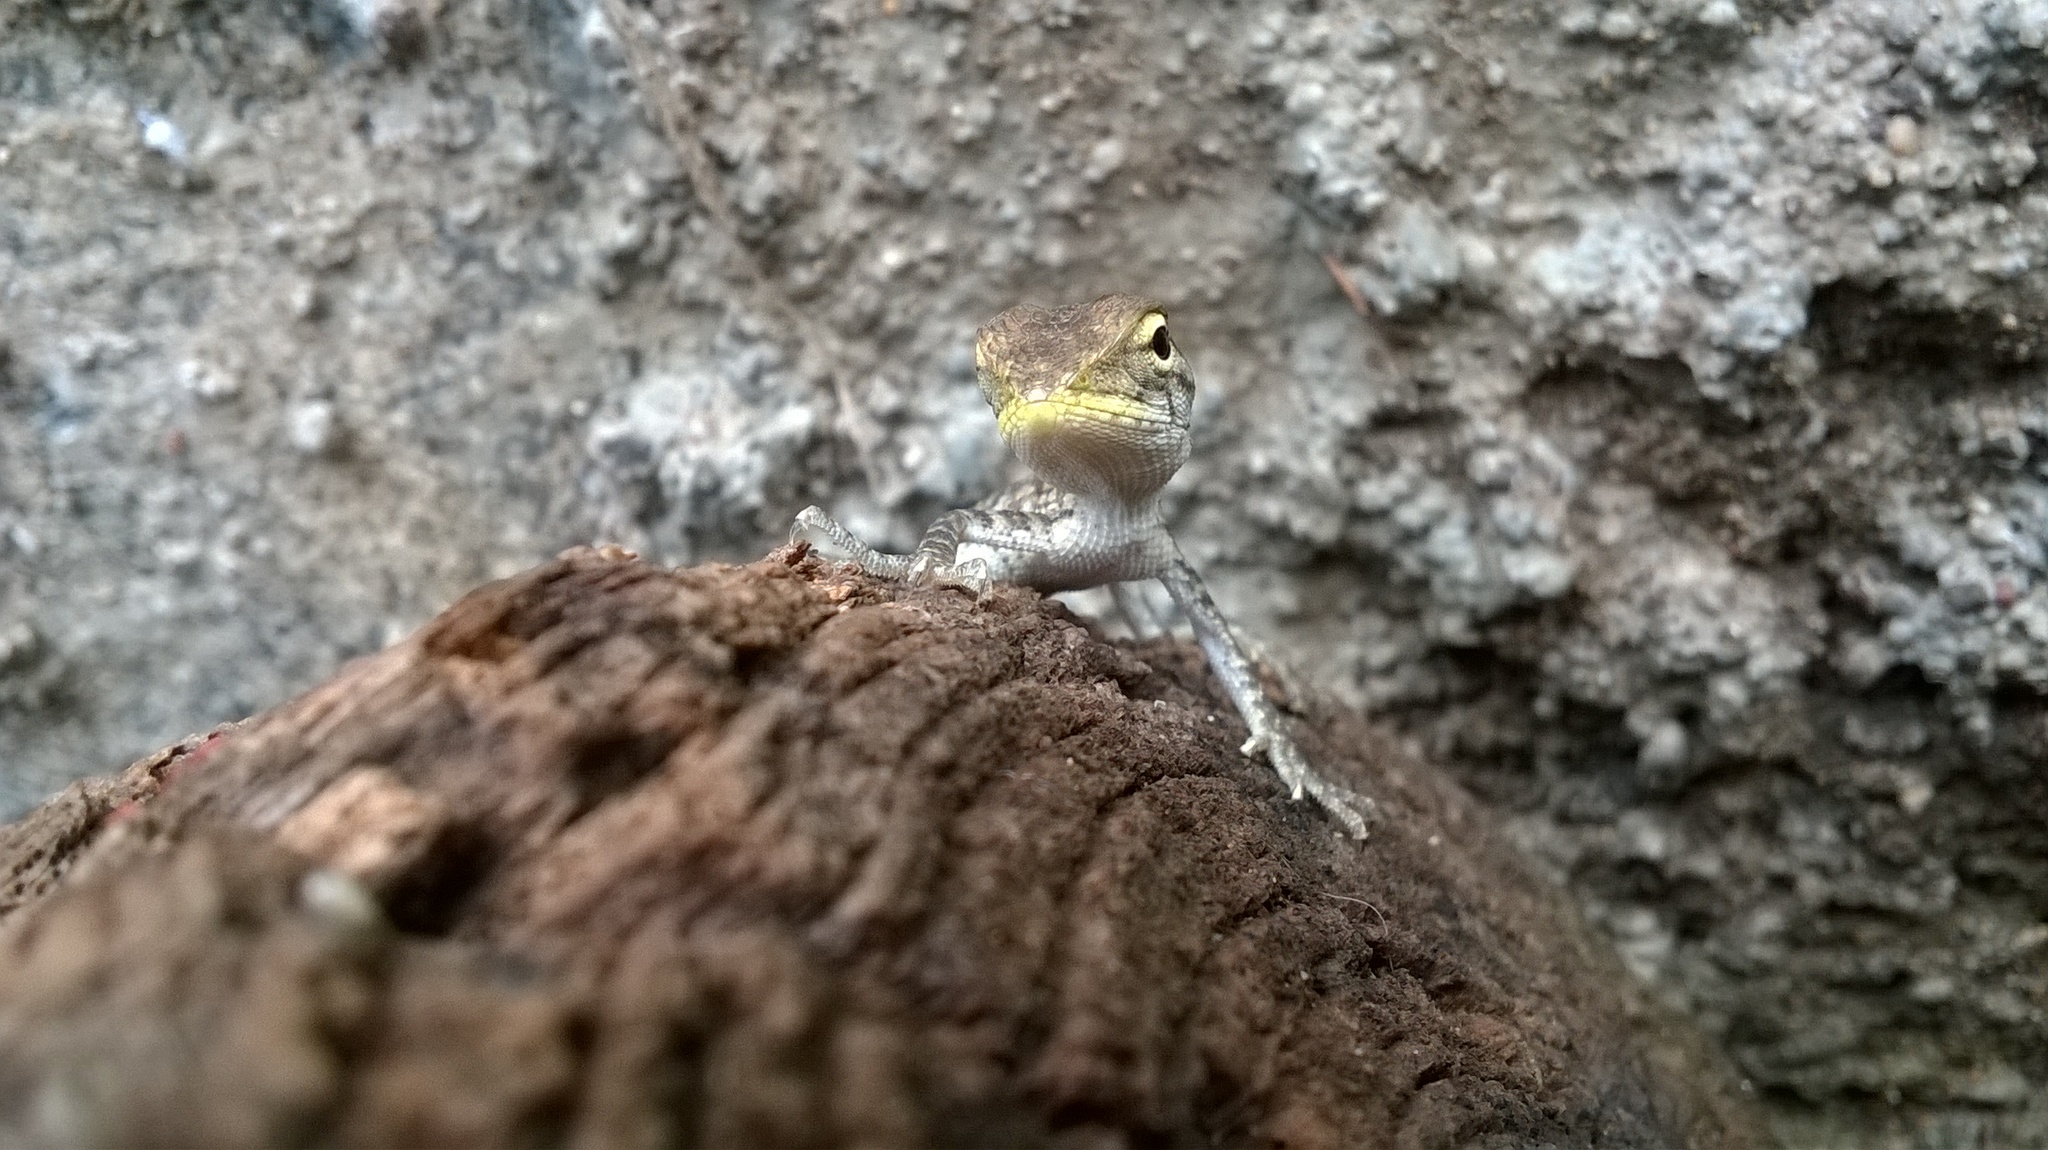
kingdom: Animalia
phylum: Chordata
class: Squamata
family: Agamidae
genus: Calotes
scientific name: Calotes versicolor
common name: Oriental garden lizard
